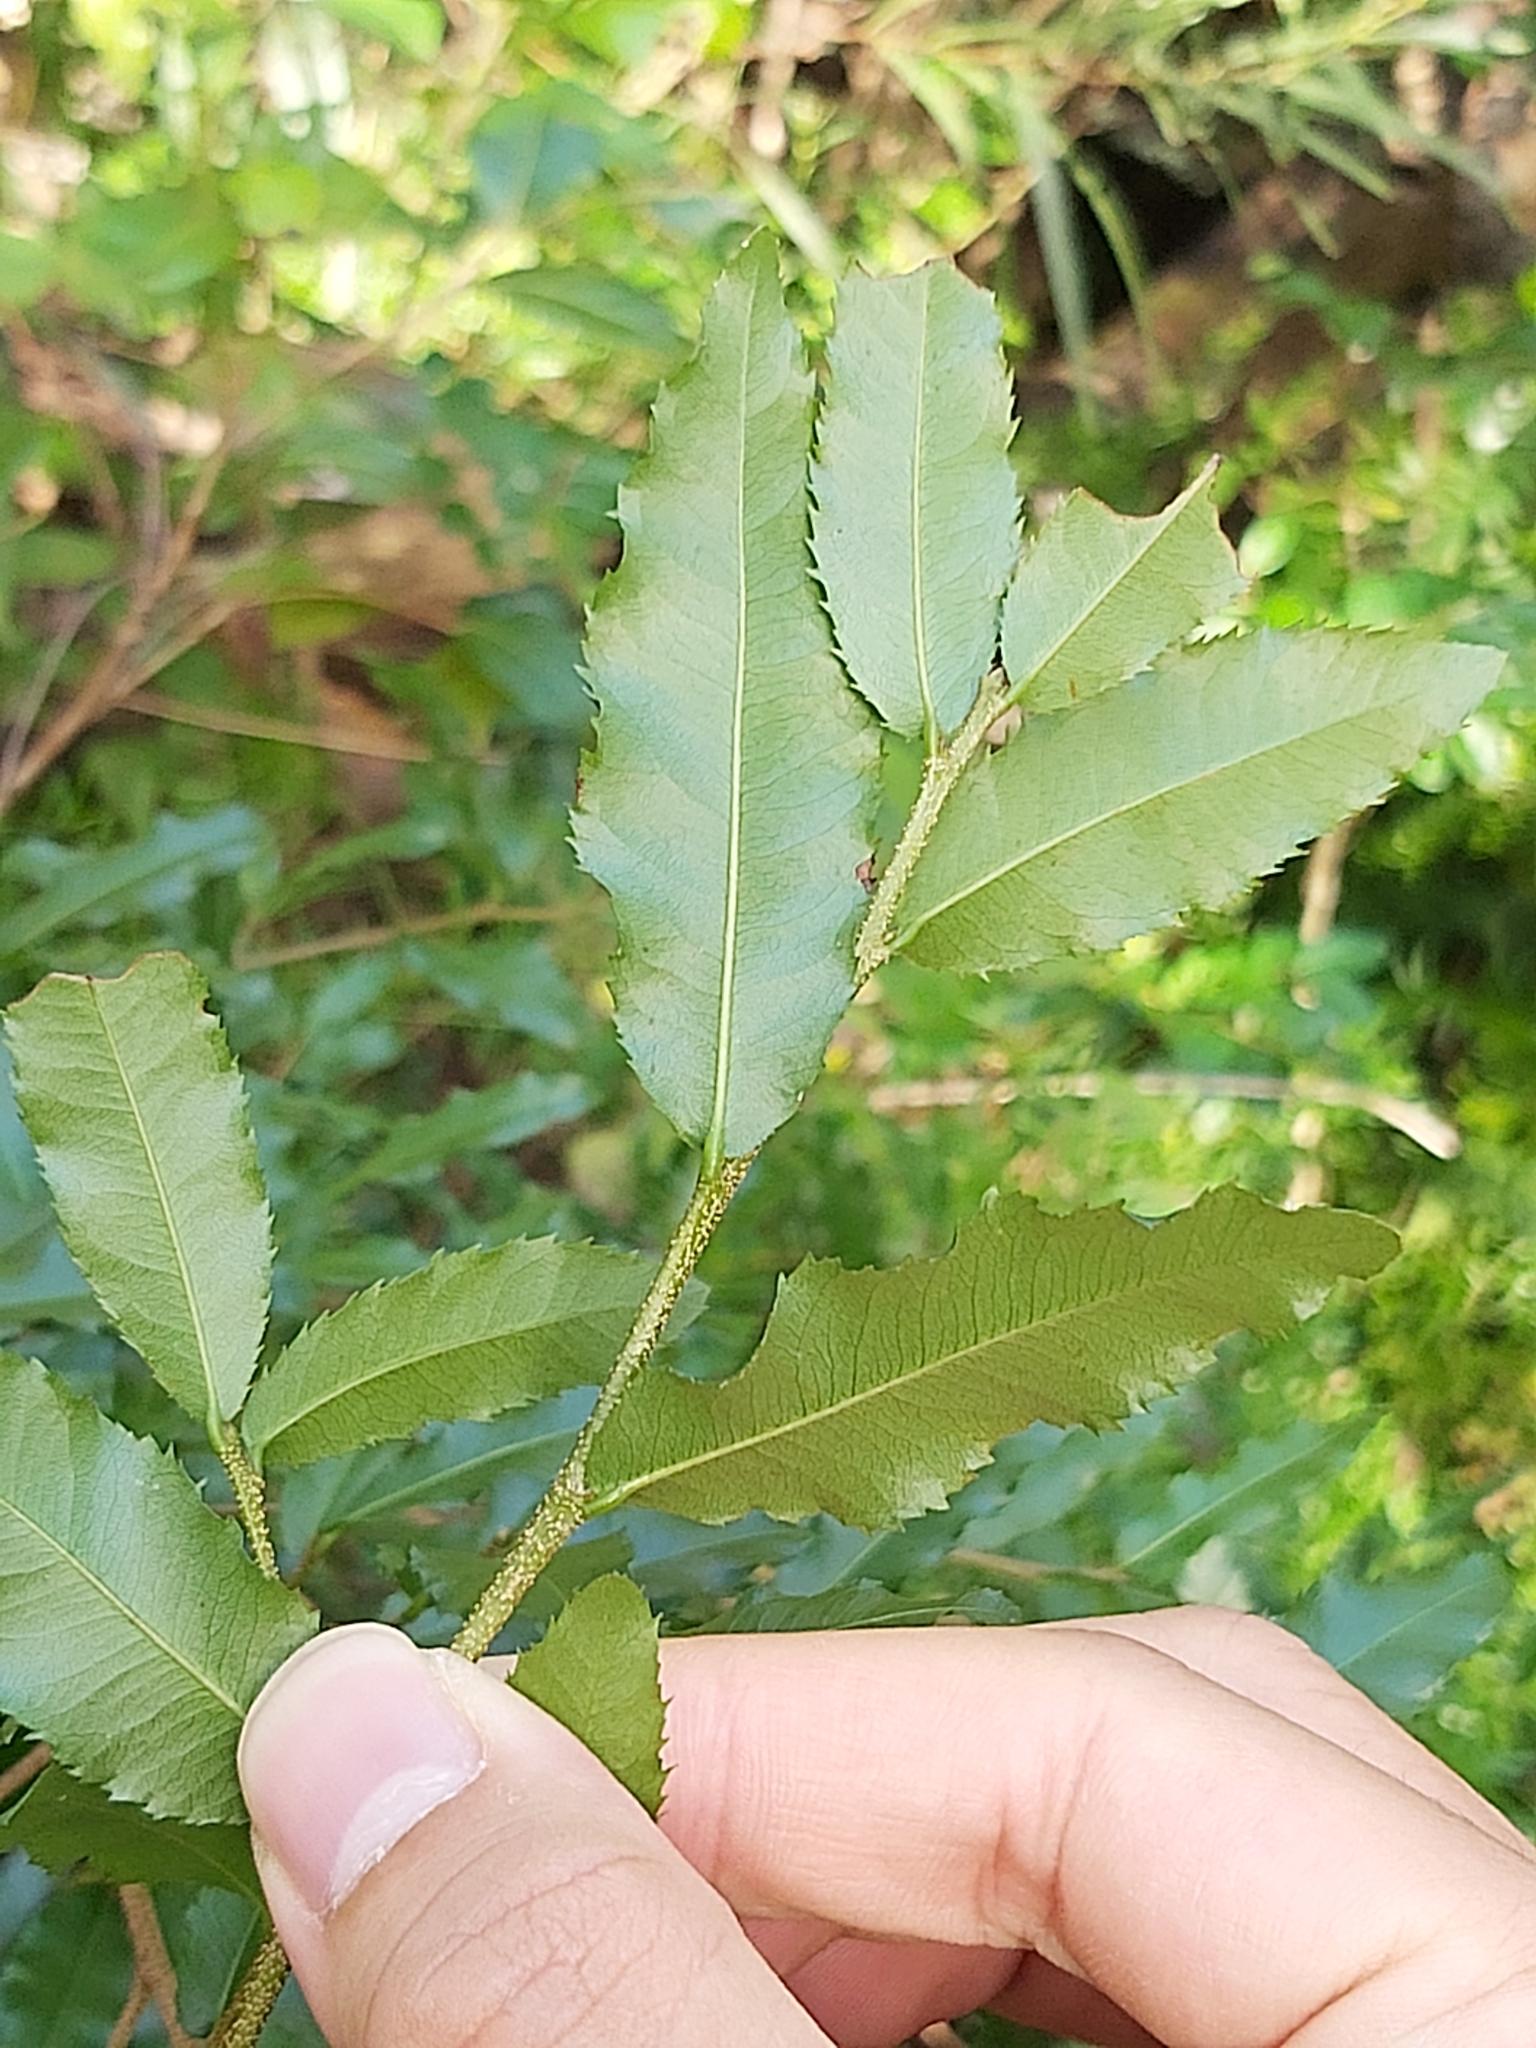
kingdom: Plantae
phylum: Tracheophyta
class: Magnoliopsida
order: Malpighiales
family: Ochnaceae
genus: Ochna
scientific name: Ochna serrulata
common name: Mickey mouse plant
